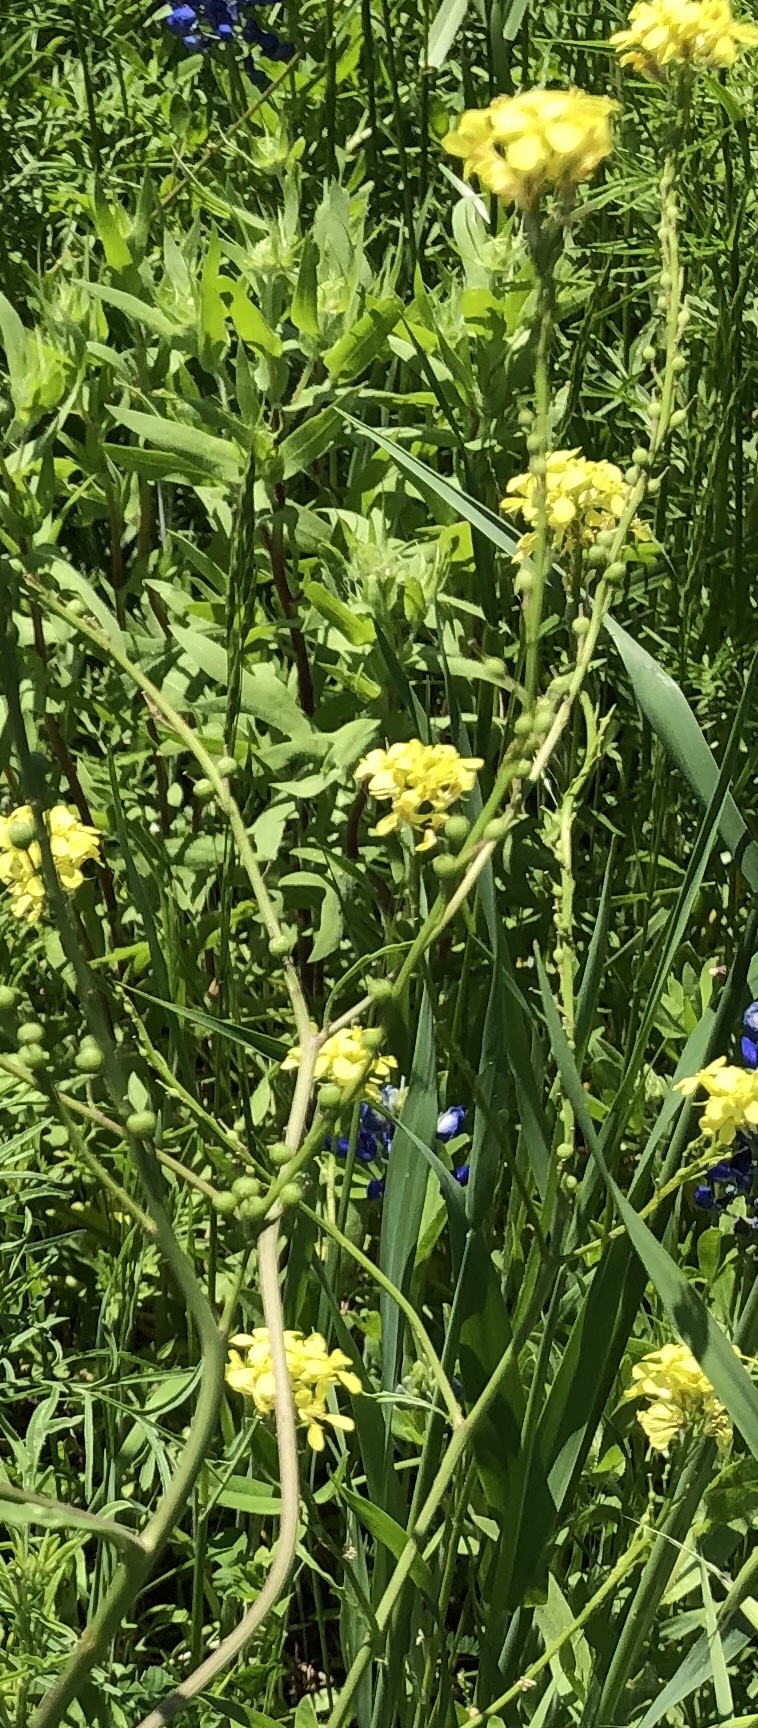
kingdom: Plantae
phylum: Tracheophyta
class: Magnoliopsida
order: Brassicales
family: Brassicaceae
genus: Rapistrum
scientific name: Rapistrum rugosum
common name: Annual bastardcabbage
